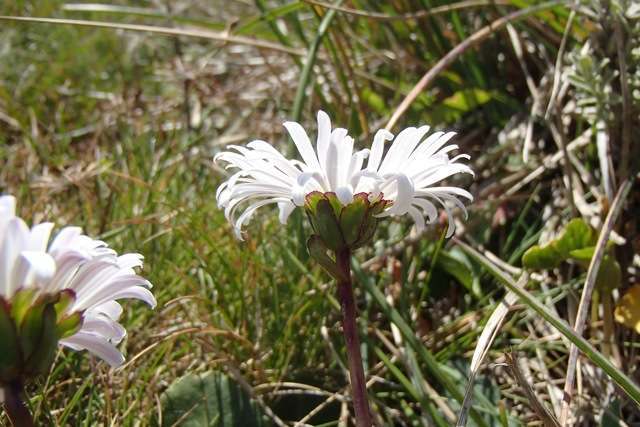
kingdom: Plantae
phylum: Tracheophyta
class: Magnoliopsida
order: Asterales
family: Asteraceae
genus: Brachyscome
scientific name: Brachyscome decipiens
